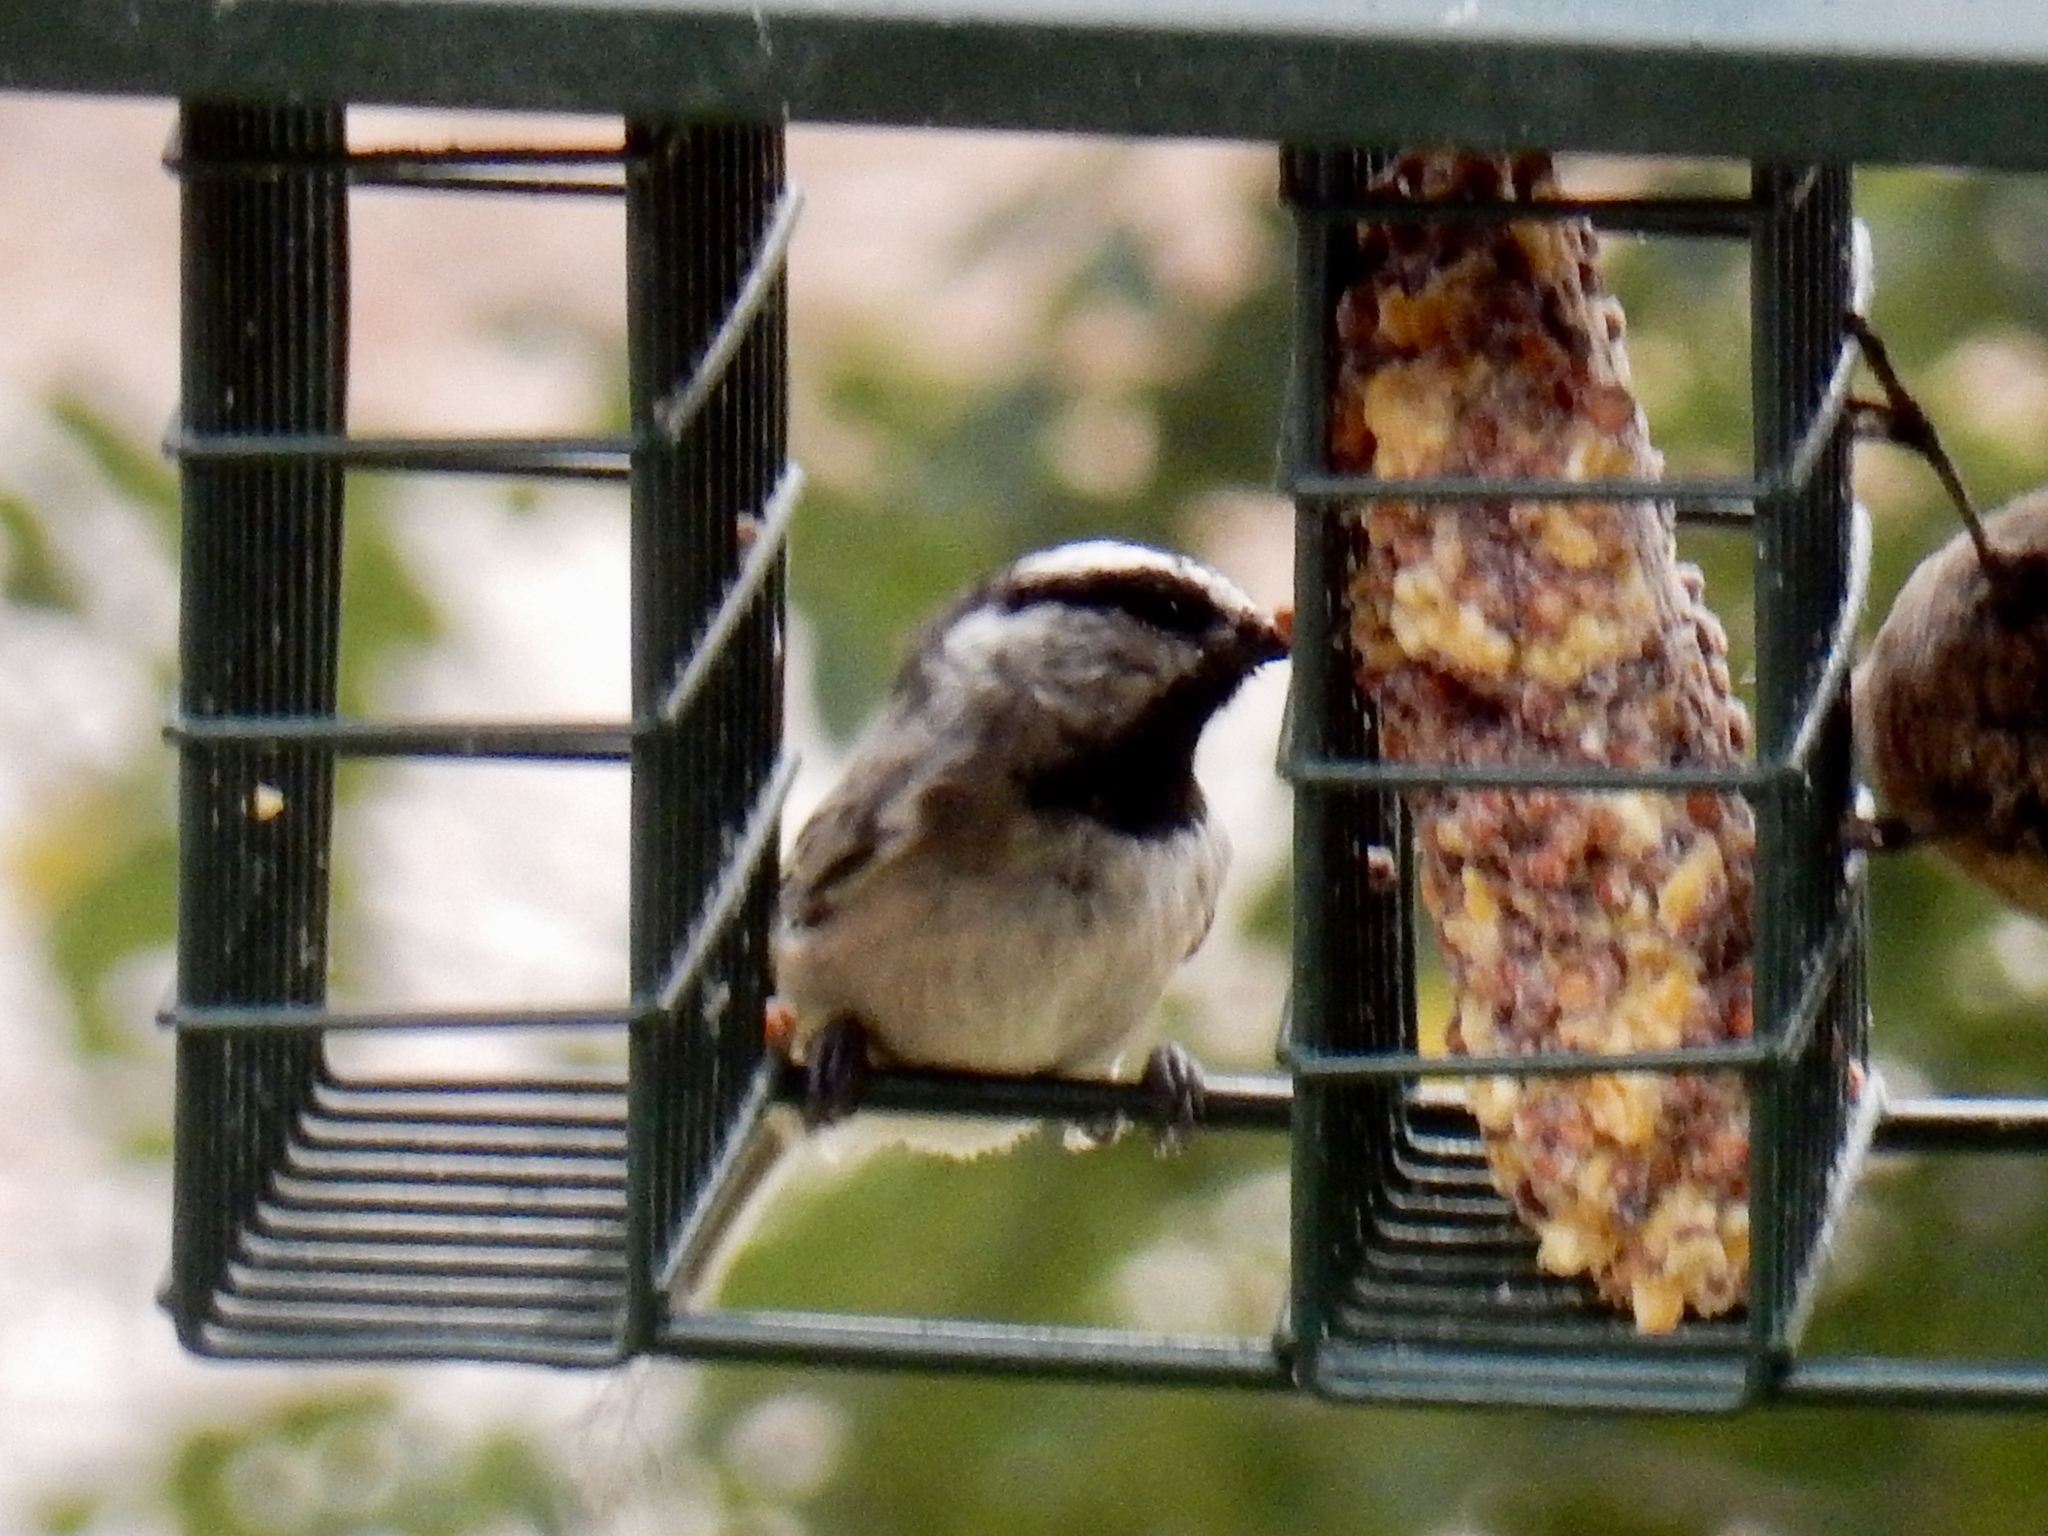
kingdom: Animalia
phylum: Chordata
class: Aves
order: Passeriformes
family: Paridae
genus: Poecile
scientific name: Poecile gambeli
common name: Mountain chickadee
